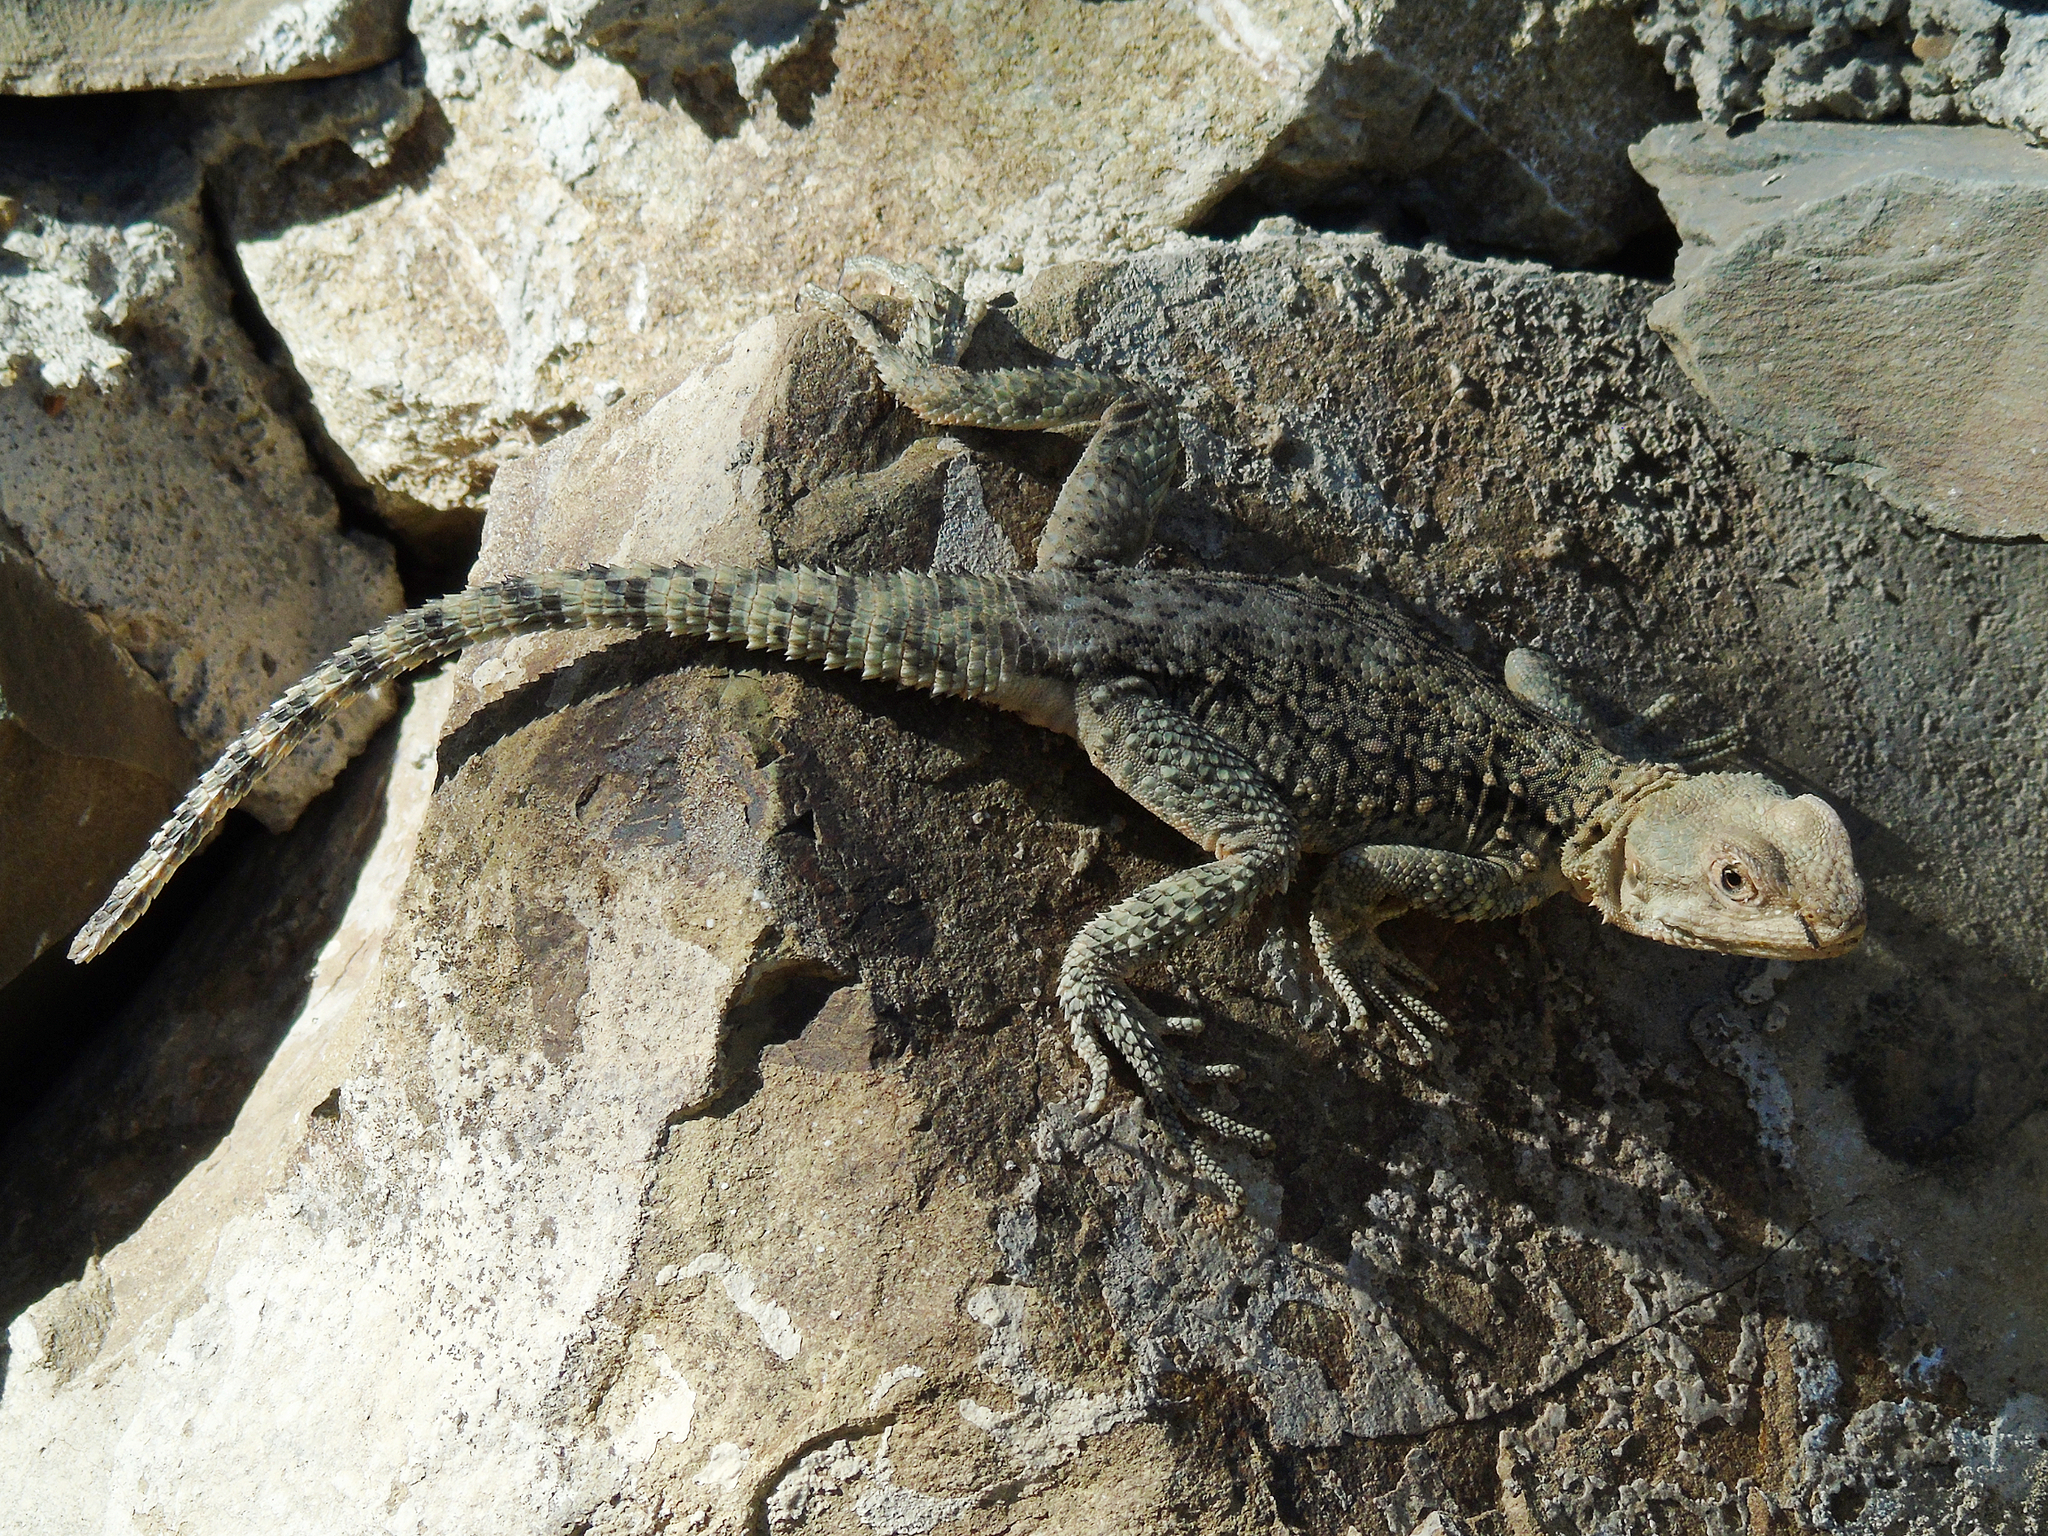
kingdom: Animalia
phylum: Chordata
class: Squamata
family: Agamidae
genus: Paralaudakia
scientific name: Paralaudakia caucasia
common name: Caucasian agama
